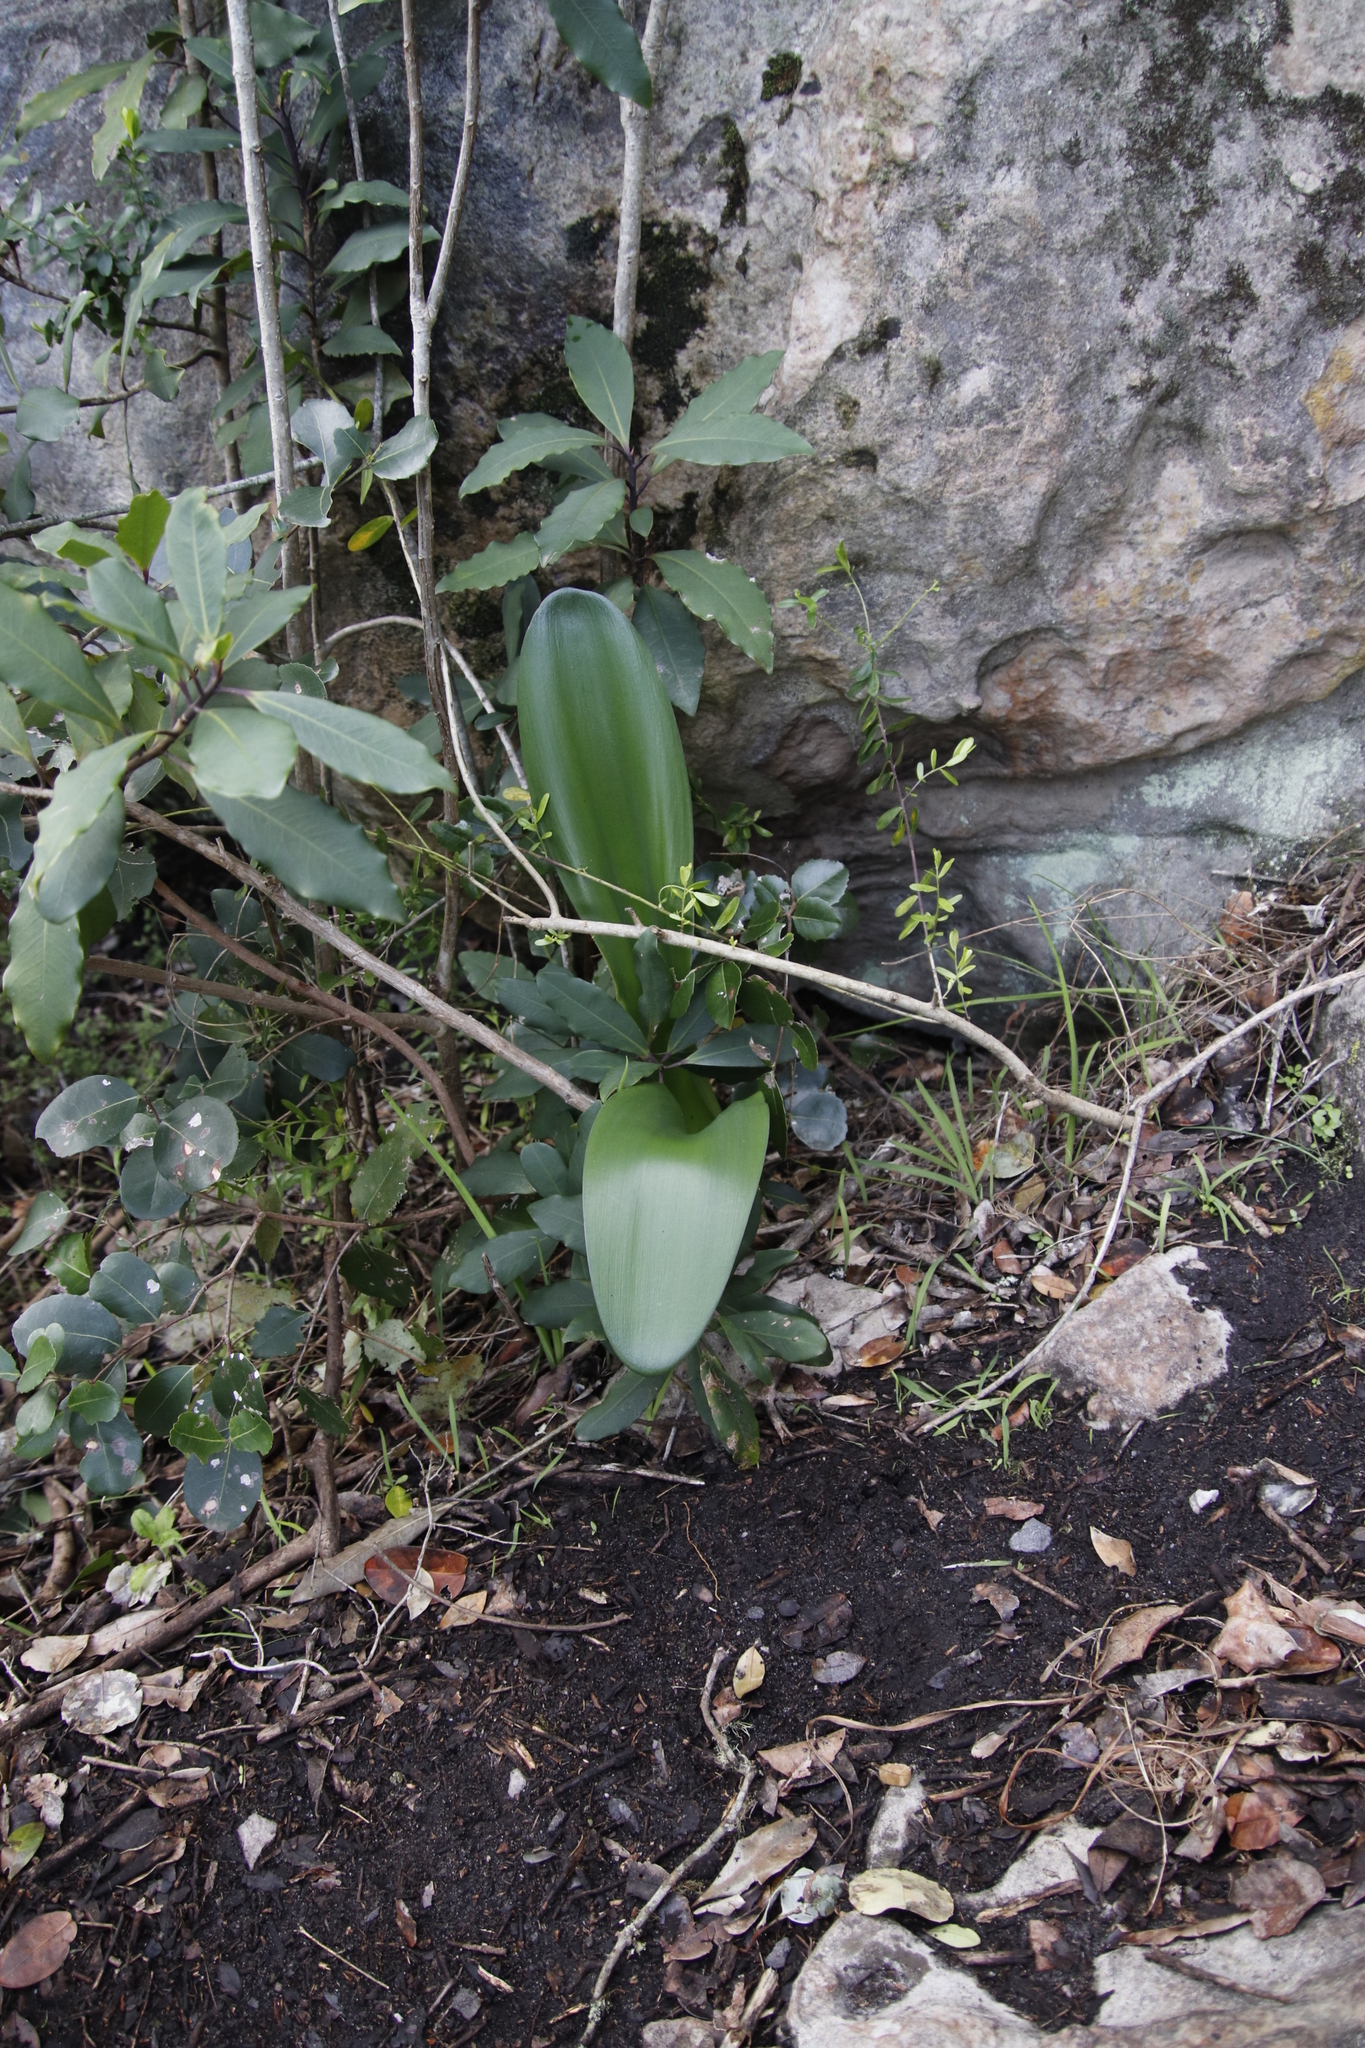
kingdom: Plantae
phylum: Tracheophyta
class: Liliopsida
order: Asparagales
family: Amaryllidaceae
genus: Haemanthus
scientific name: Haemanthus coccineus
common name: Cape-tulip
